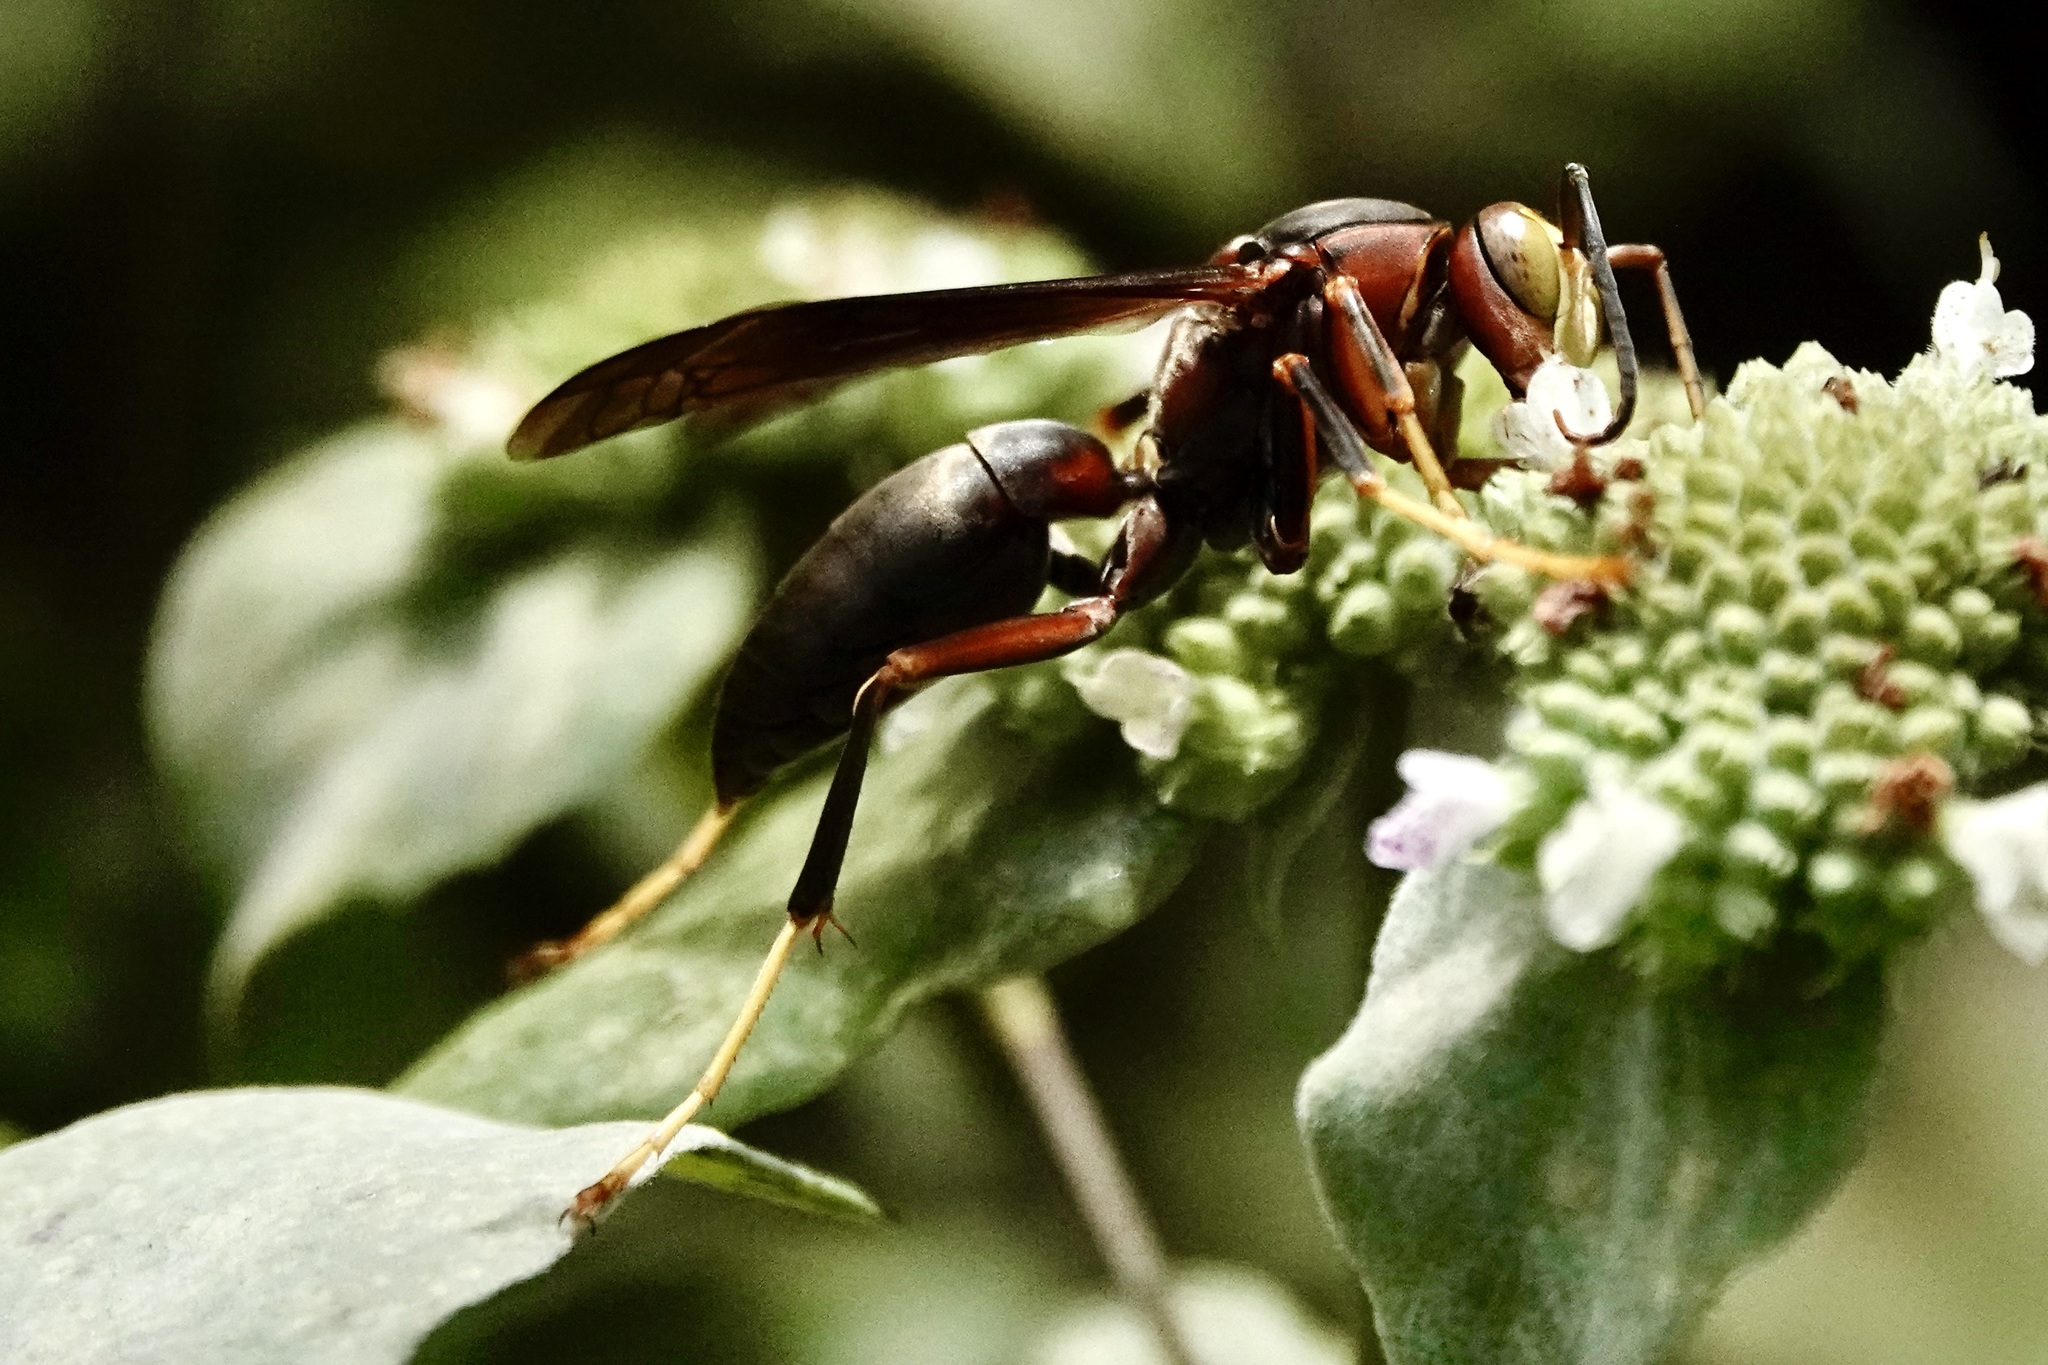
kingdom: Animalia
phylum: Arthropoda
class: Insecta
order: Hymenoptera
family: Eumenidae
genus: Polistes
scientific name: Polistes metricus
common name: Metric paper wasp
